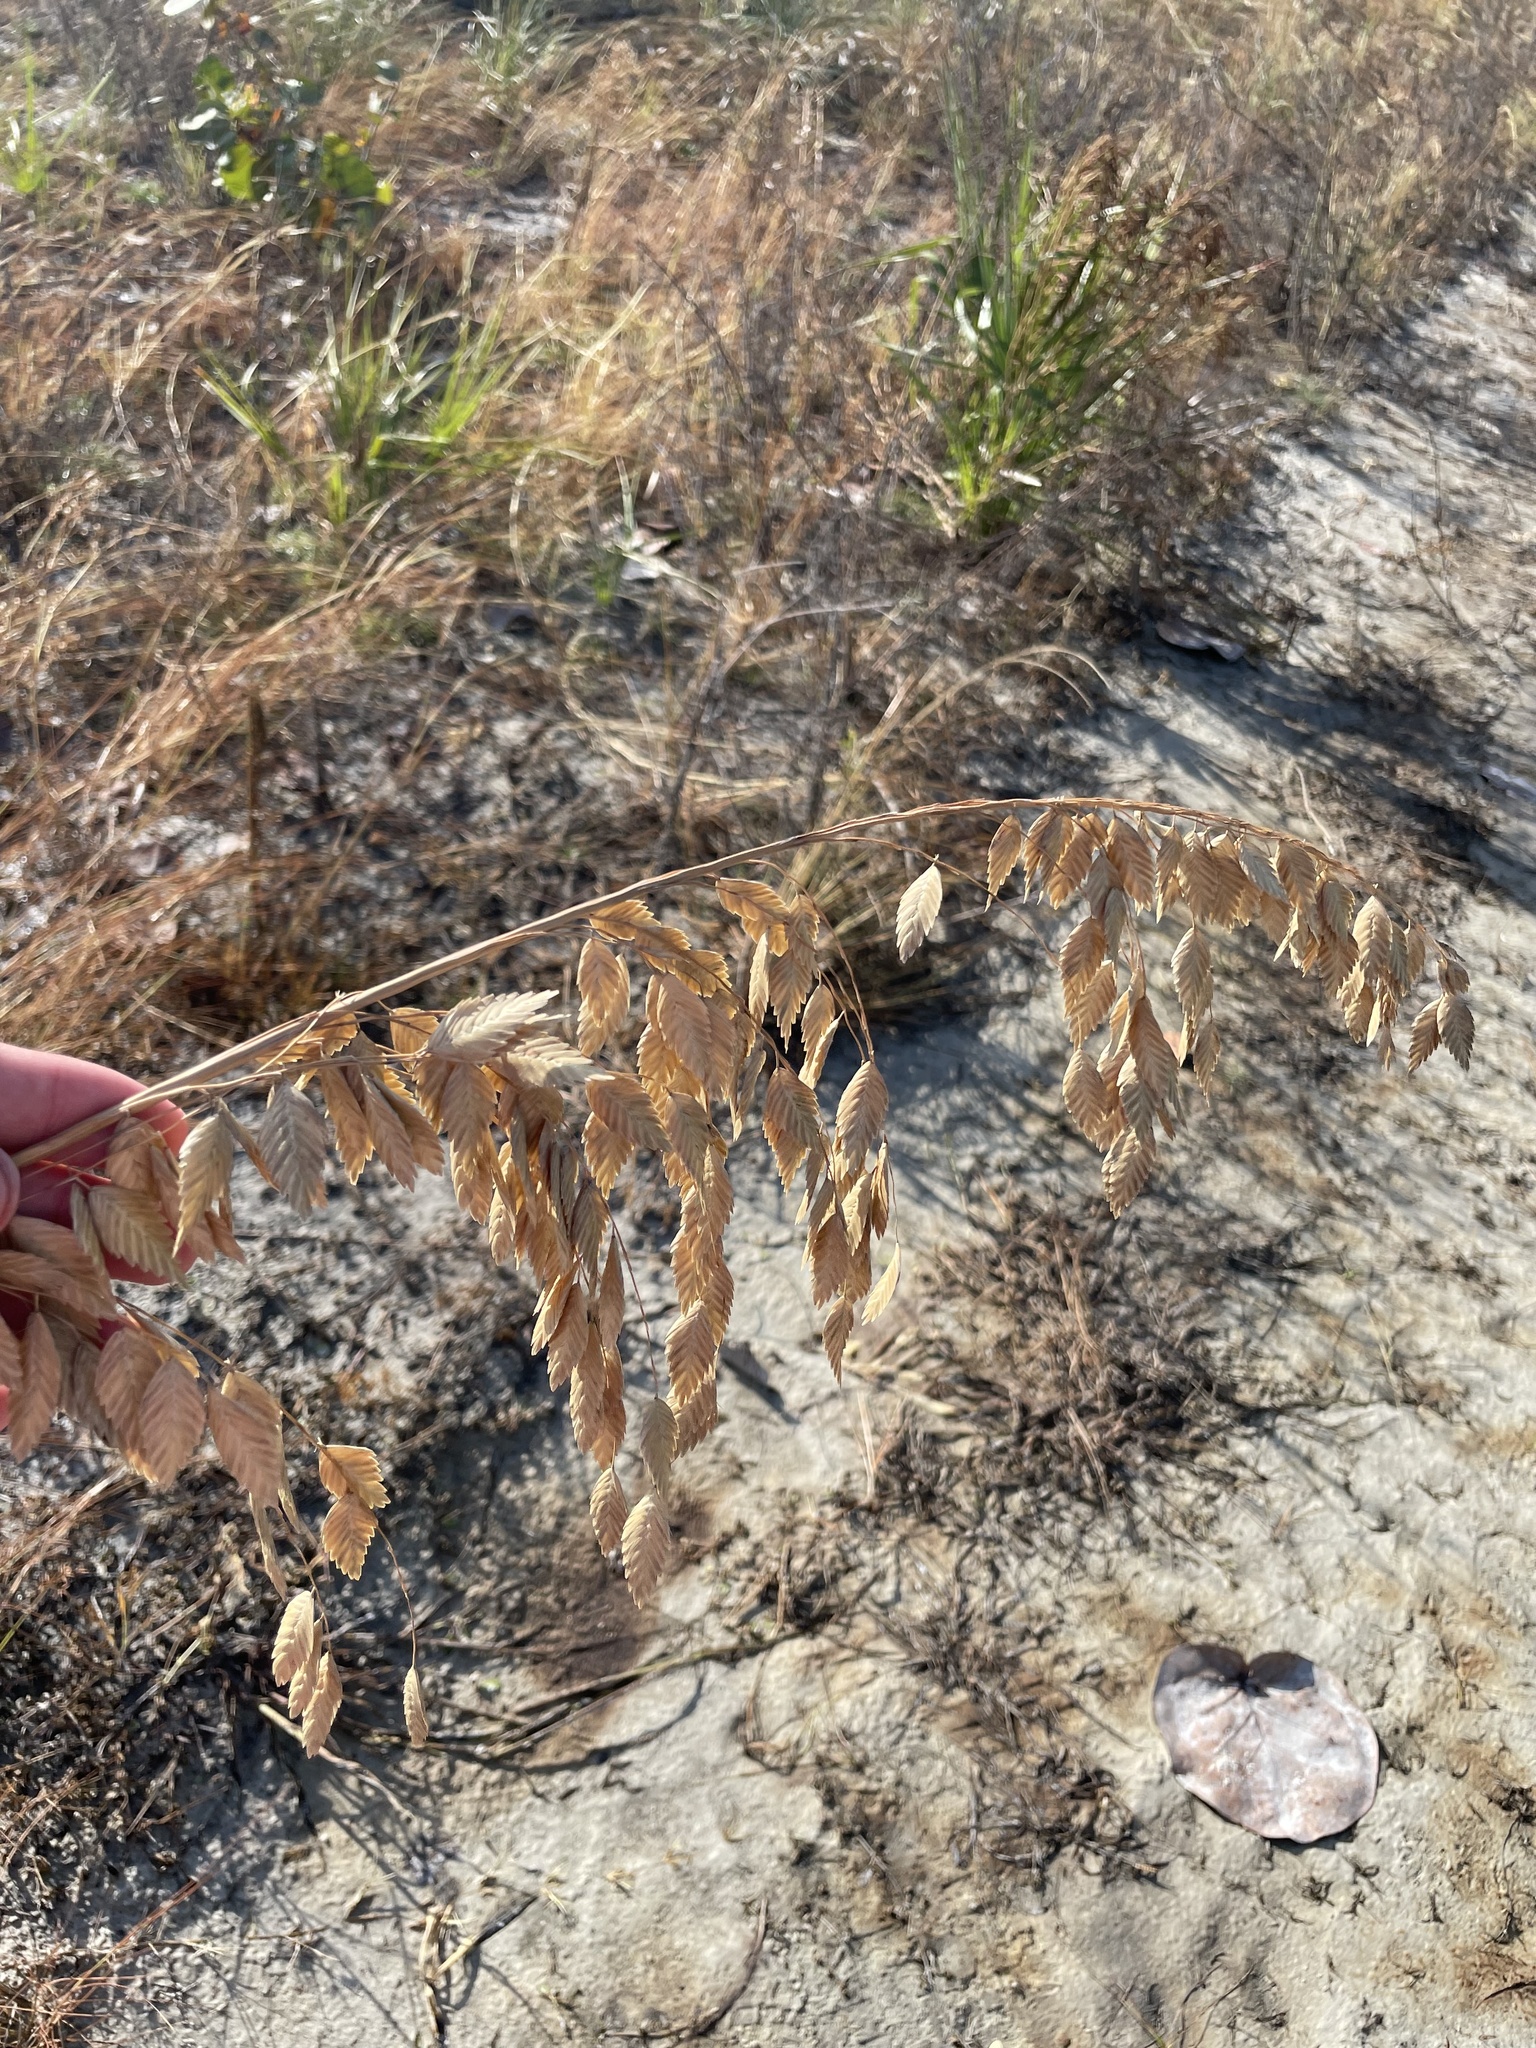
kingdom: Plantae
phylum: Tracheophyta
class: Liliopsida
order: Poales
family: Poaceae
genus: Uniola
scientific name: Uniola paniculata
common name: Seaside-oats
